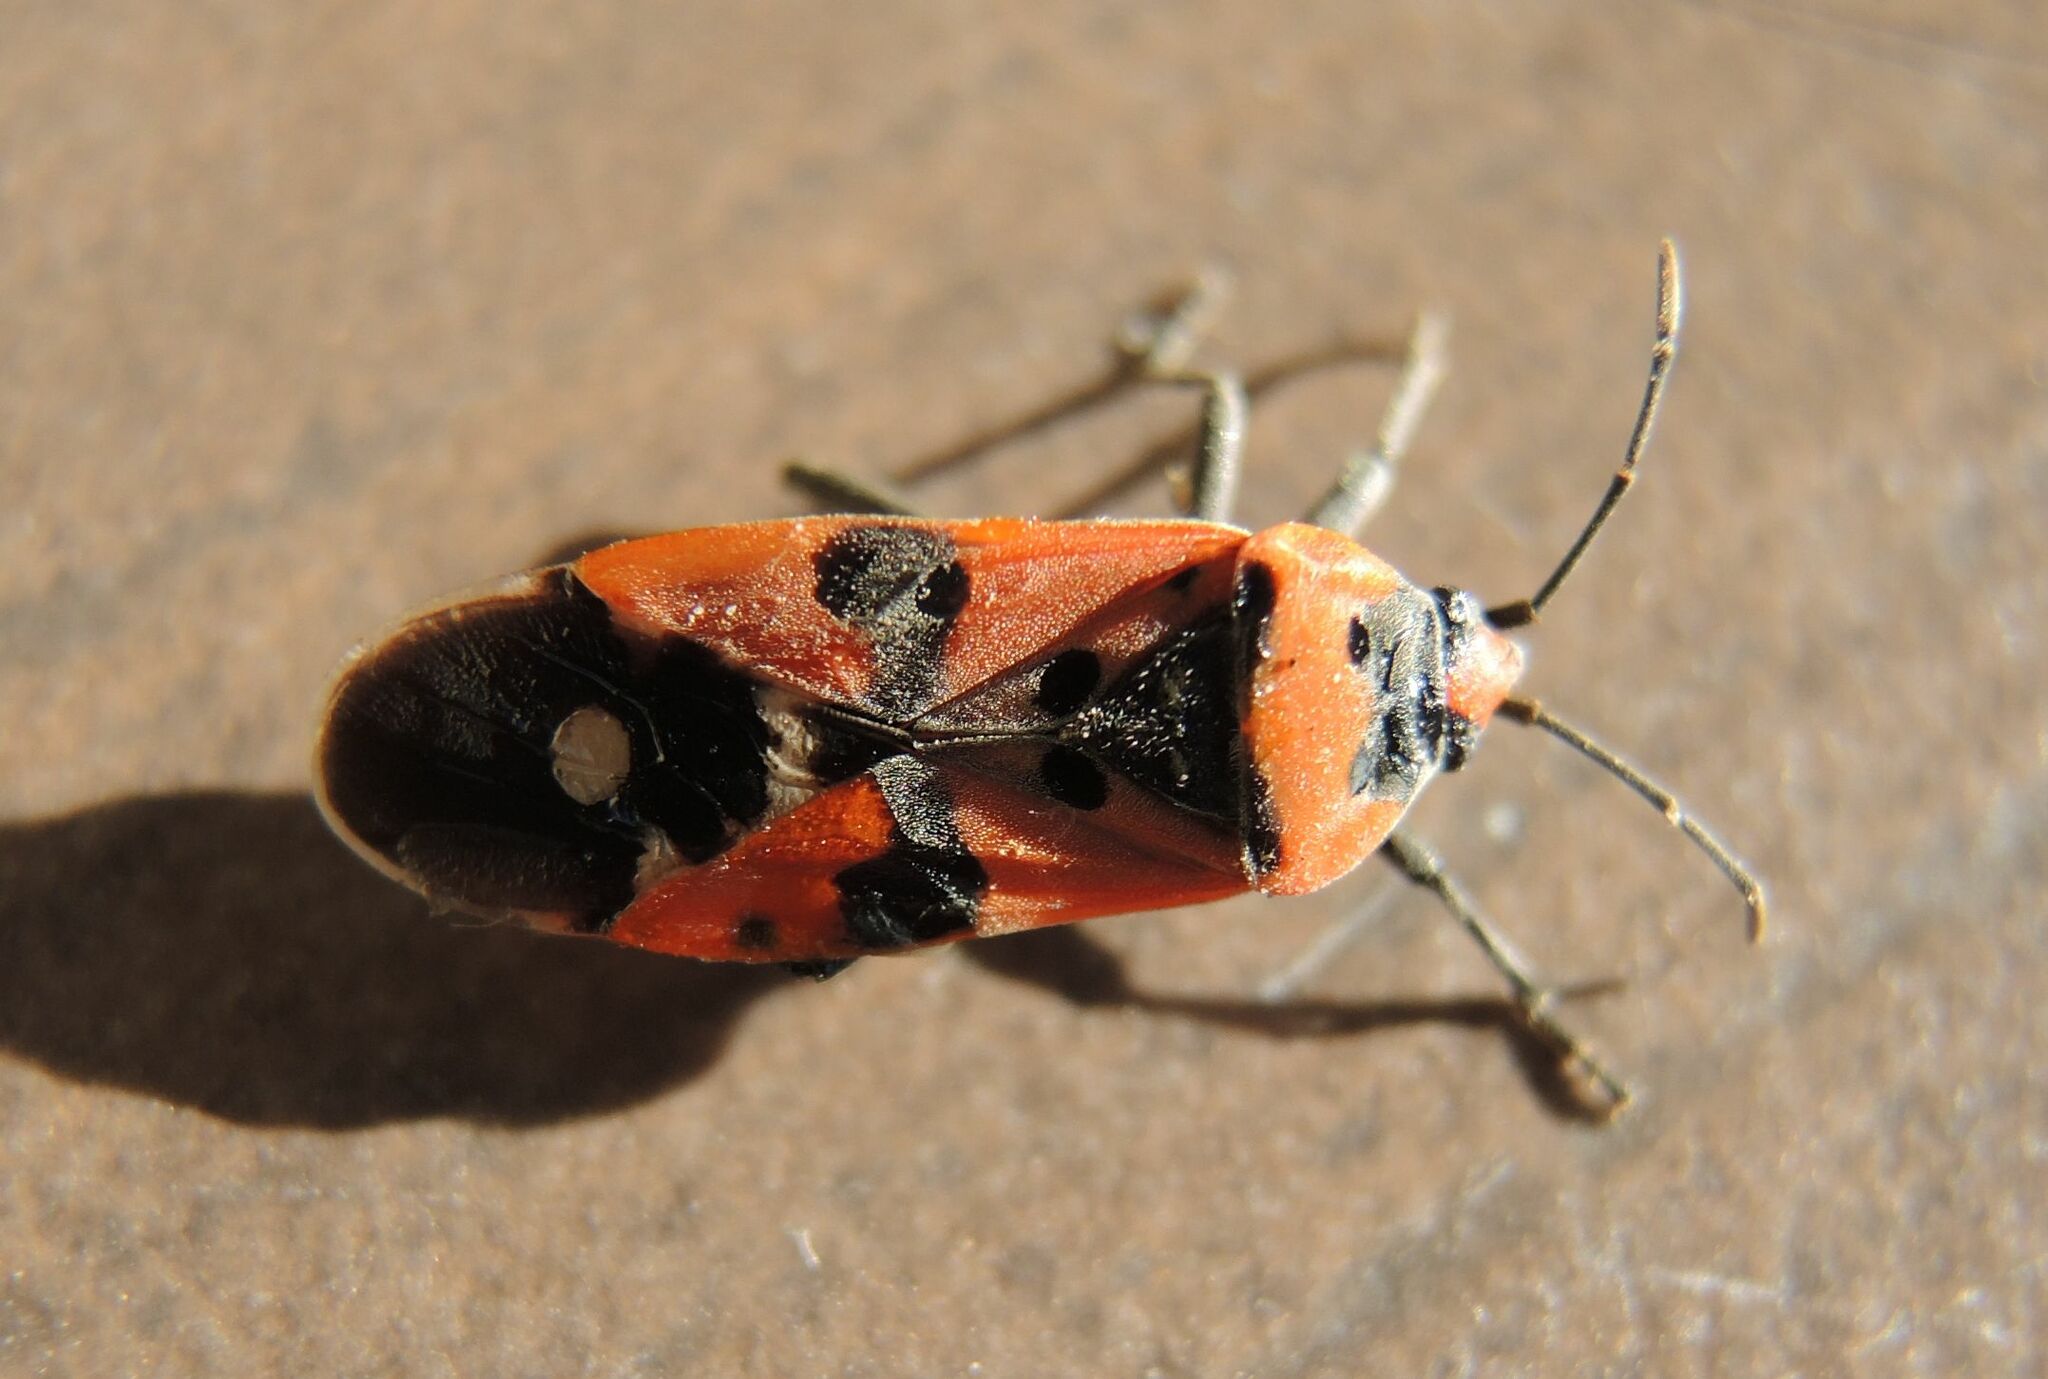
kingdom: Animalia
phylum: Arthropoda
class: Insecta
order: Hemiptera
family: Lygaeidae
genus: Lygaeus
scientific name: Lygaeus equestris
